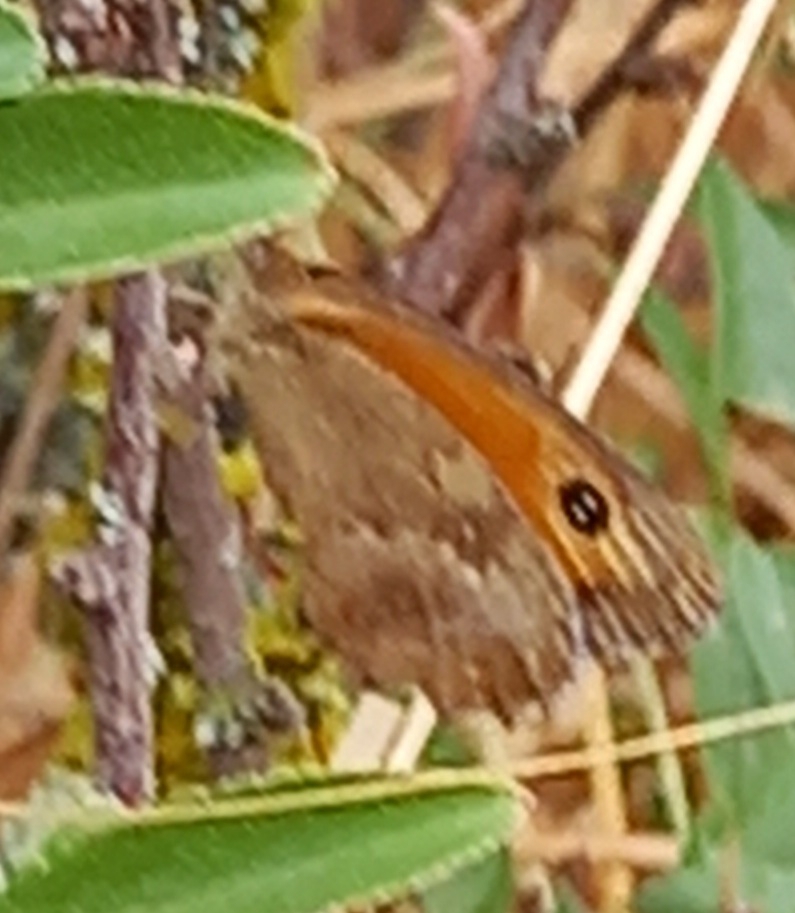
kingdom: Animalia
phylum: Arthropoda
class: Insecta
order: Lepidoptera
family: Nymphalidae
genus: Pyronia
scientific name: Pyronia tithonus
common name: Gatekeeper
